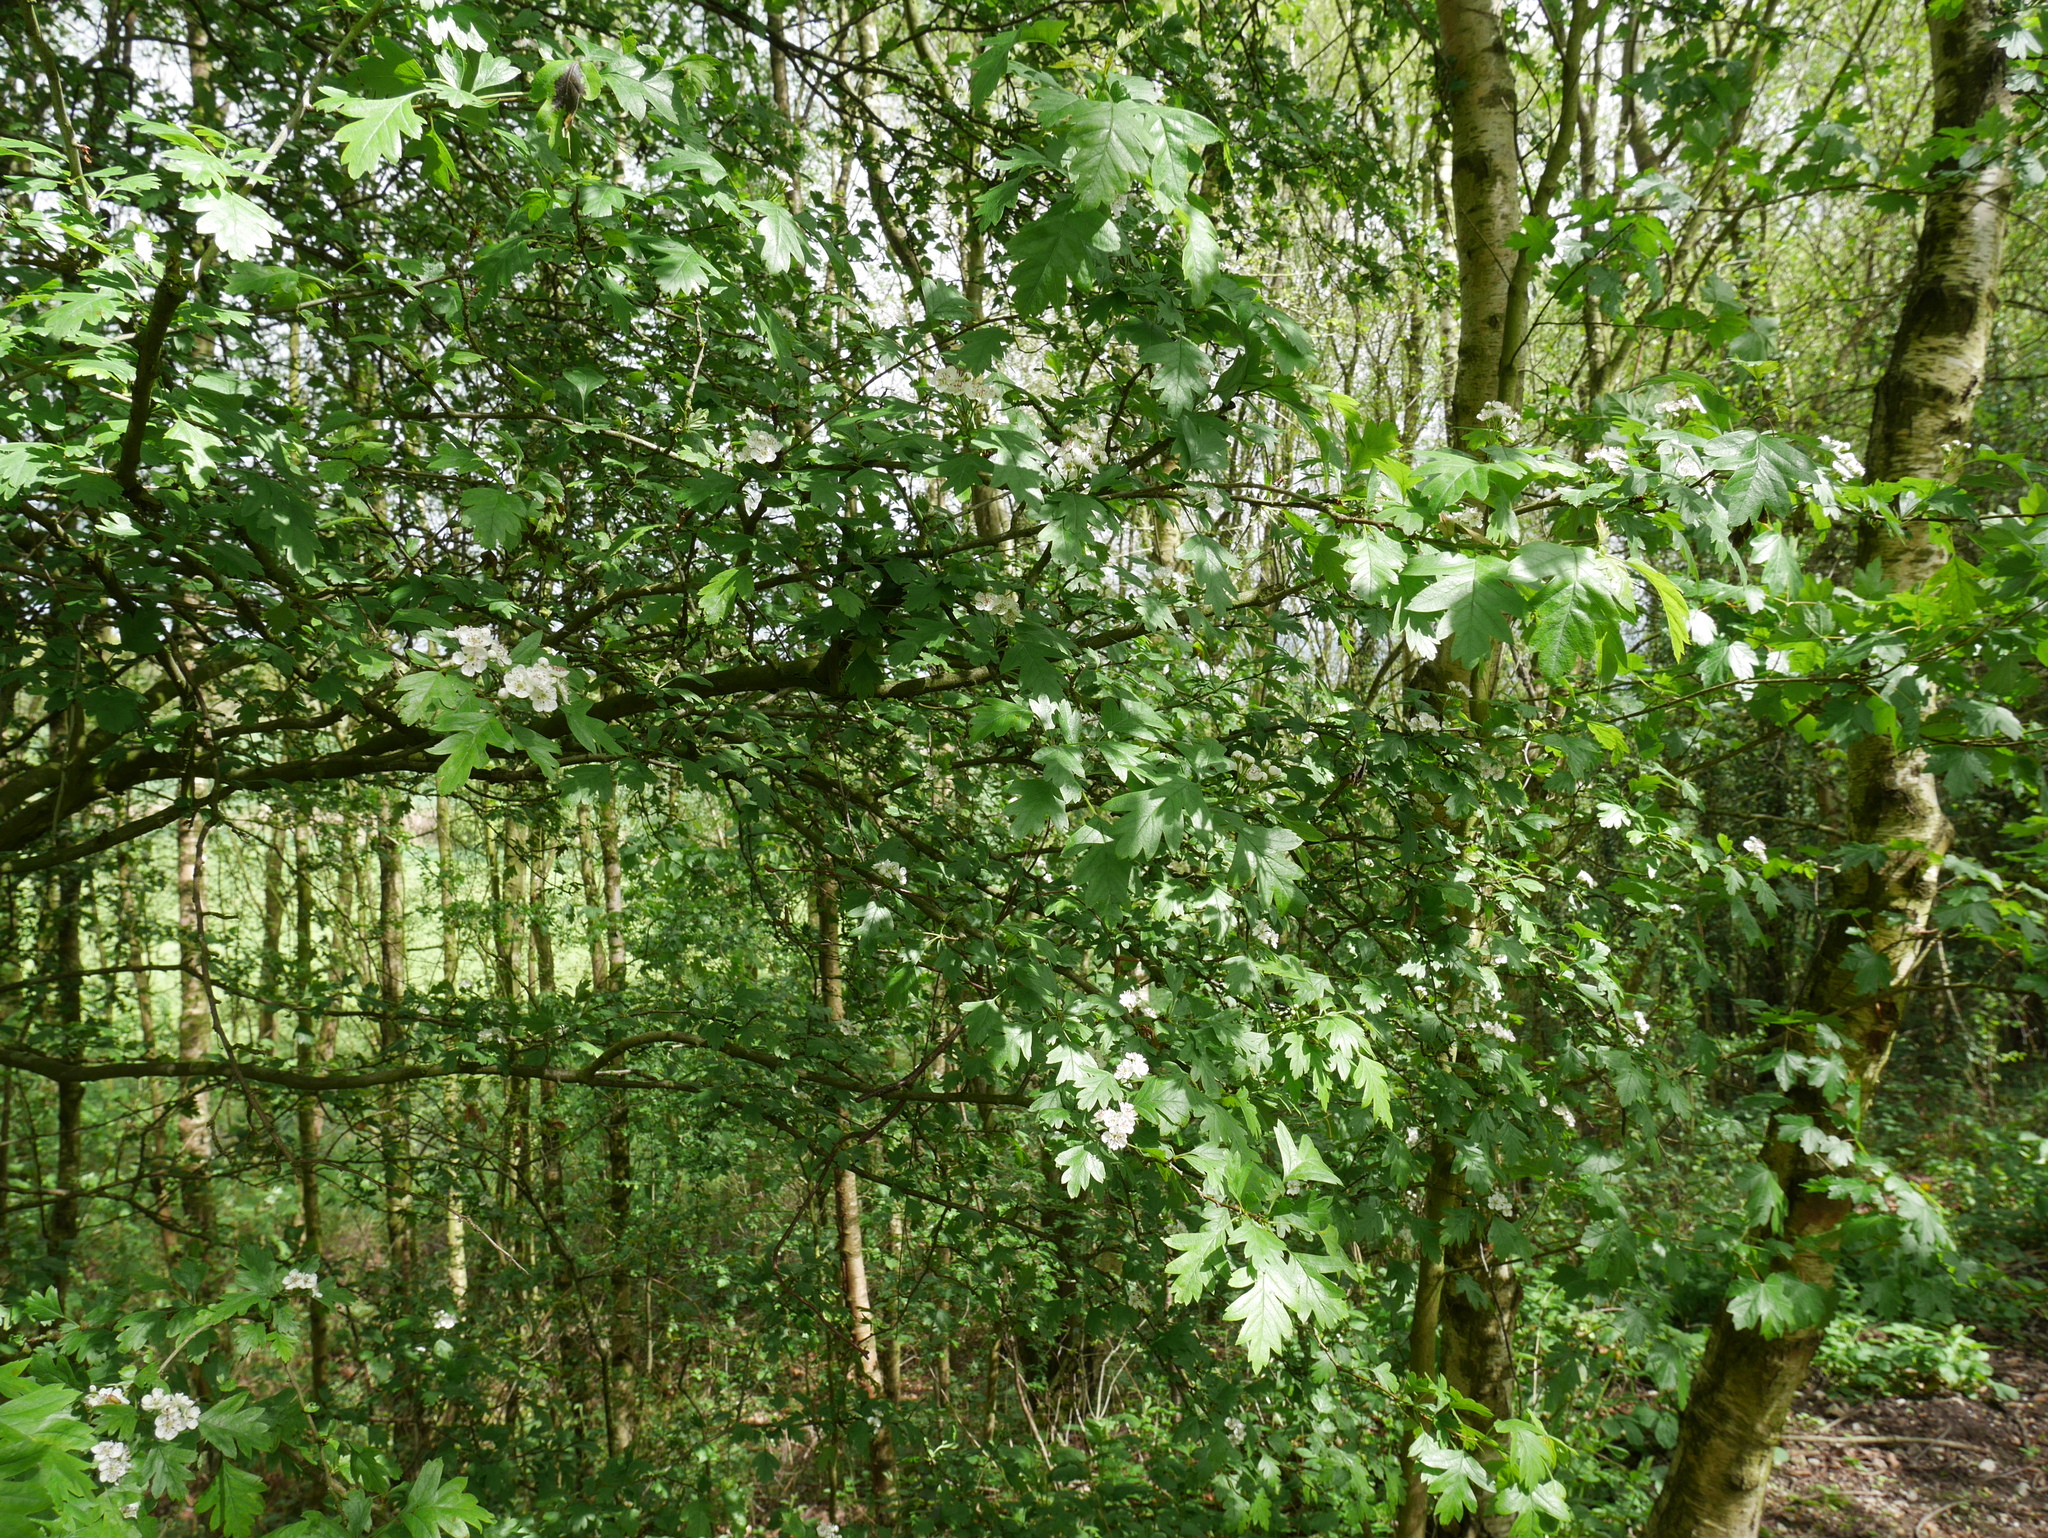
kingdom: Plantae
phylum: Tracheophyta
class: Magnoliopsida
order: Rosales
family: Rosaceae
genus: Crataegus
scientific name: Crataegus monogyna
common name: Hawthorn
